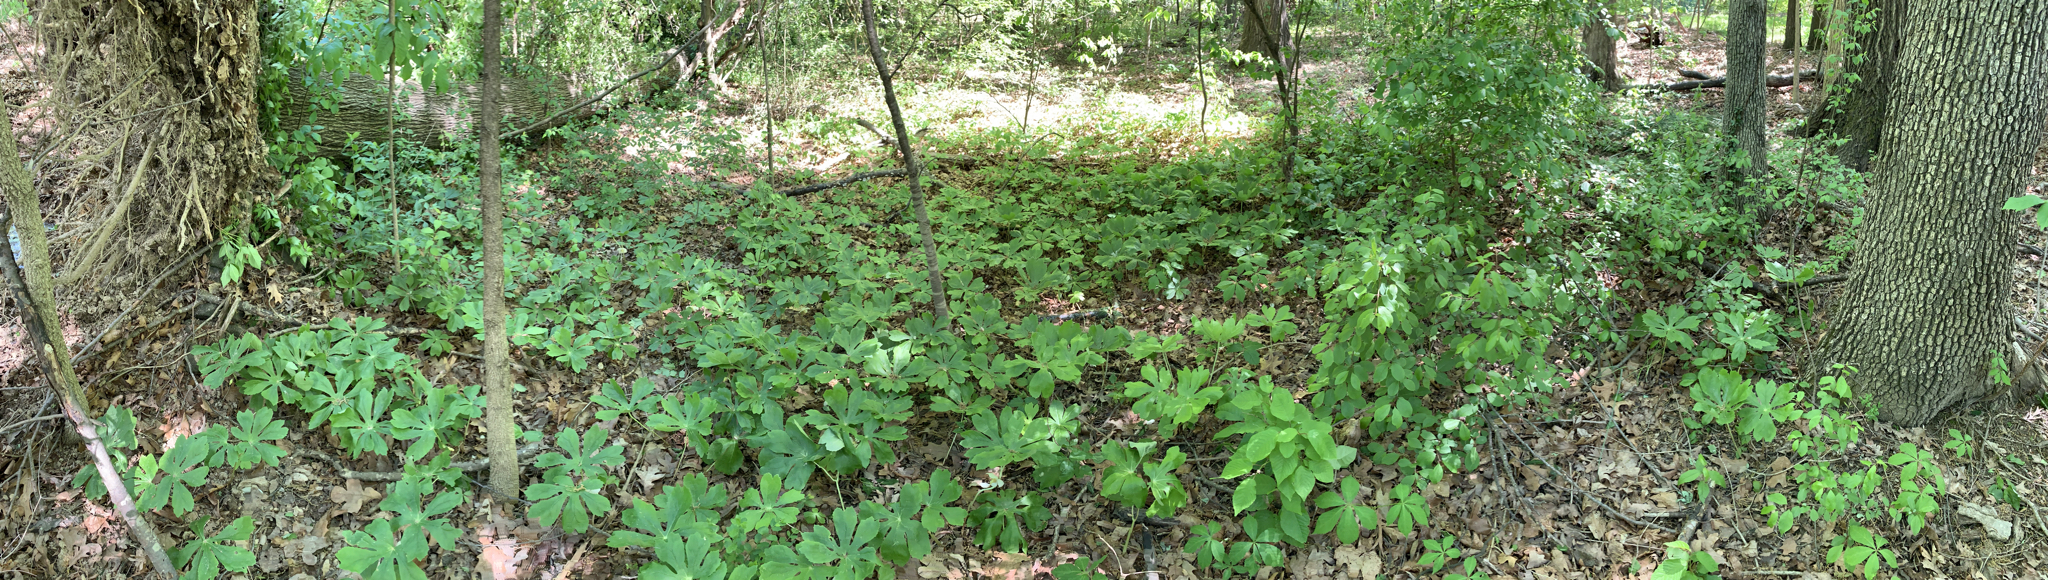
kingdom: Plantae
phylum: Tracheophyta
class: Magnoliopsida
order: Ranunculales
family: Berberidaceae
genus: Podophyllum
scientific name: Podophyllum peltatum
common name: Wild mandrake
